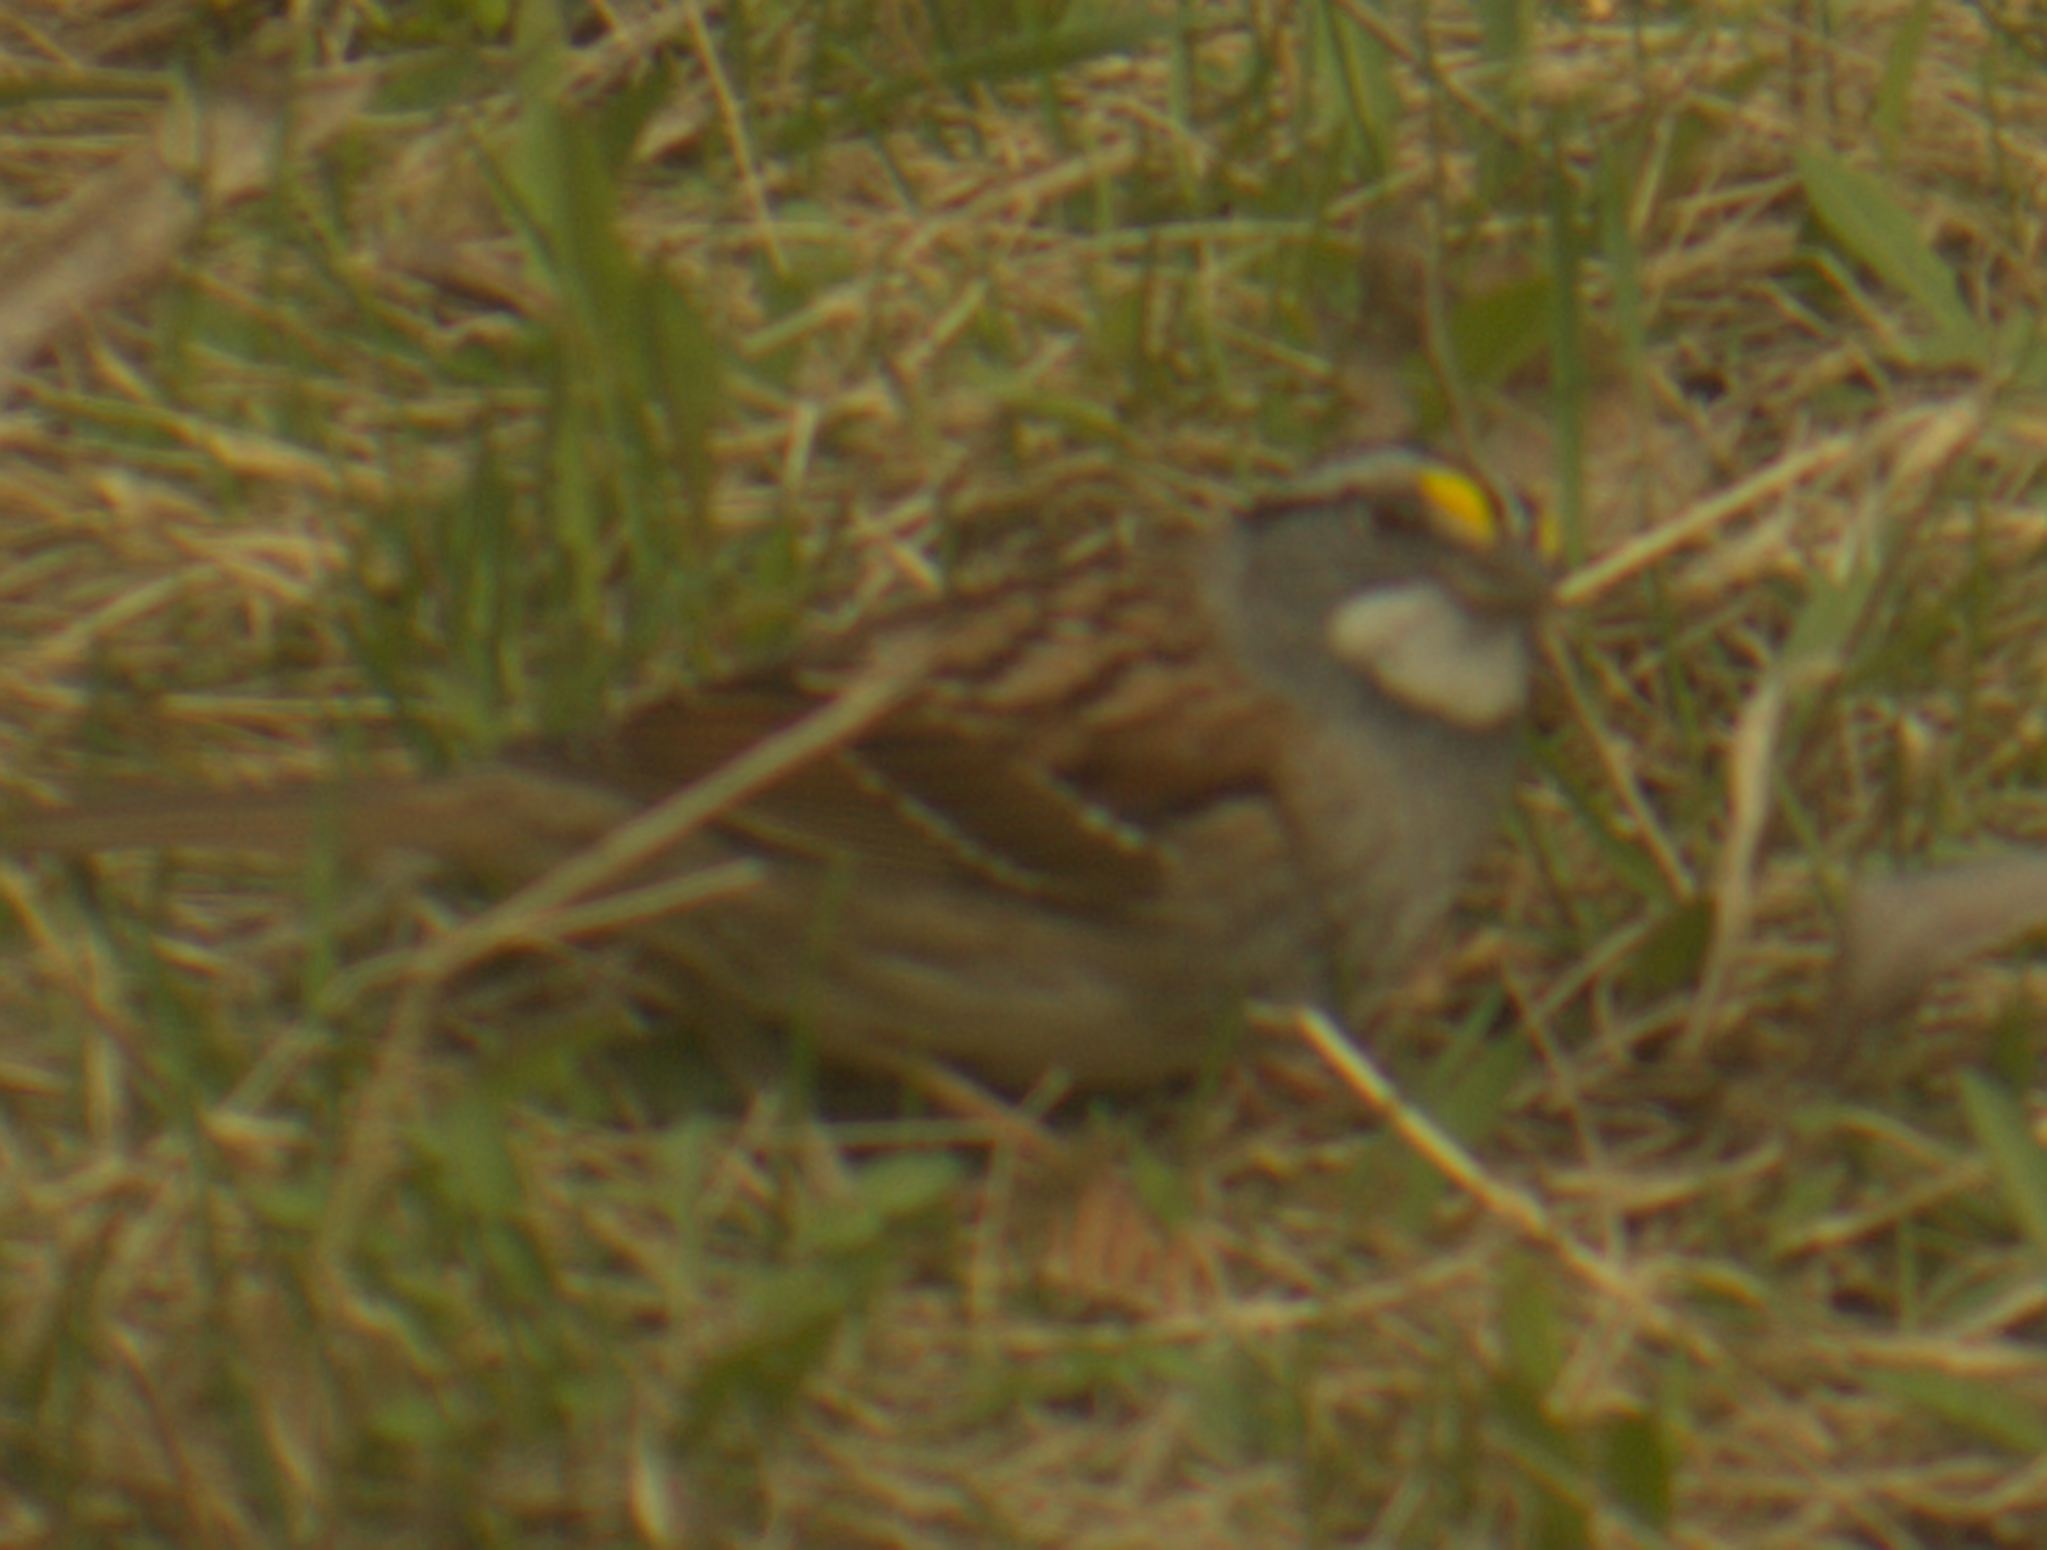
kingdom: Animalia
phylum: Chordata
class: Aves
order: Passeriformes
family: Passerellidae
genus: Zonotrichia
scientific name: Zonotrichia albicollis
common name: White-throated sparrow
